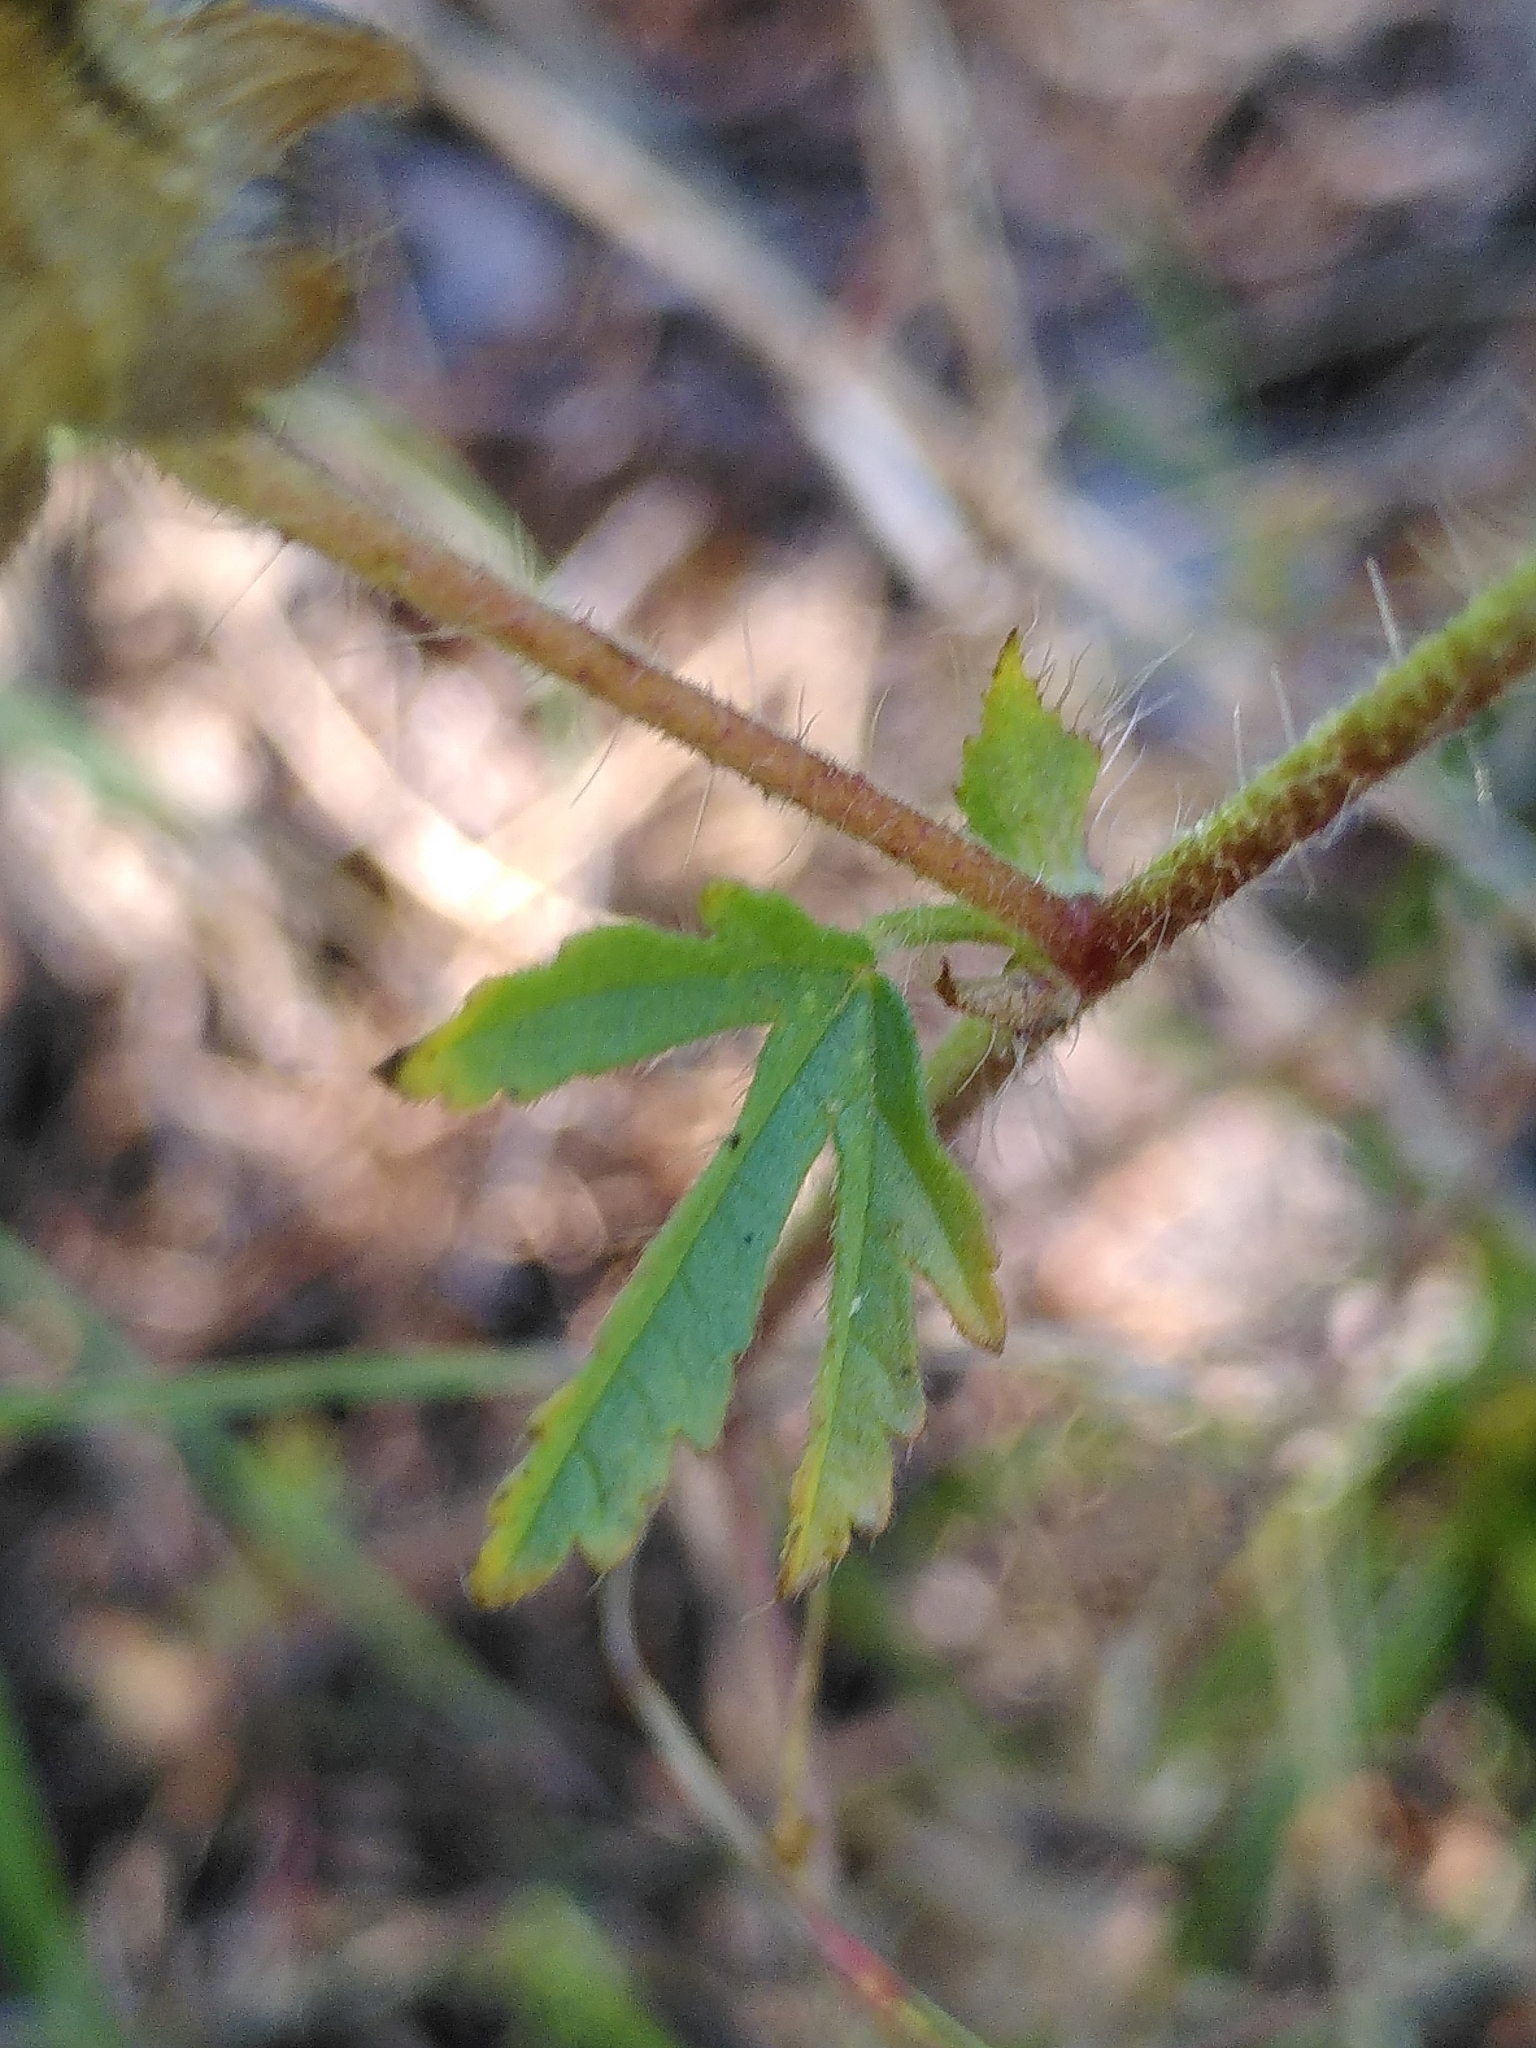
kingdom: Plantae
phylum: Tracheophyta
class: Magnoliopsida
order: Rosales
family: Rosaceae
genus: Potentilla
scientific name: Potentilla recta
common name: Sulphur cinquefoil
